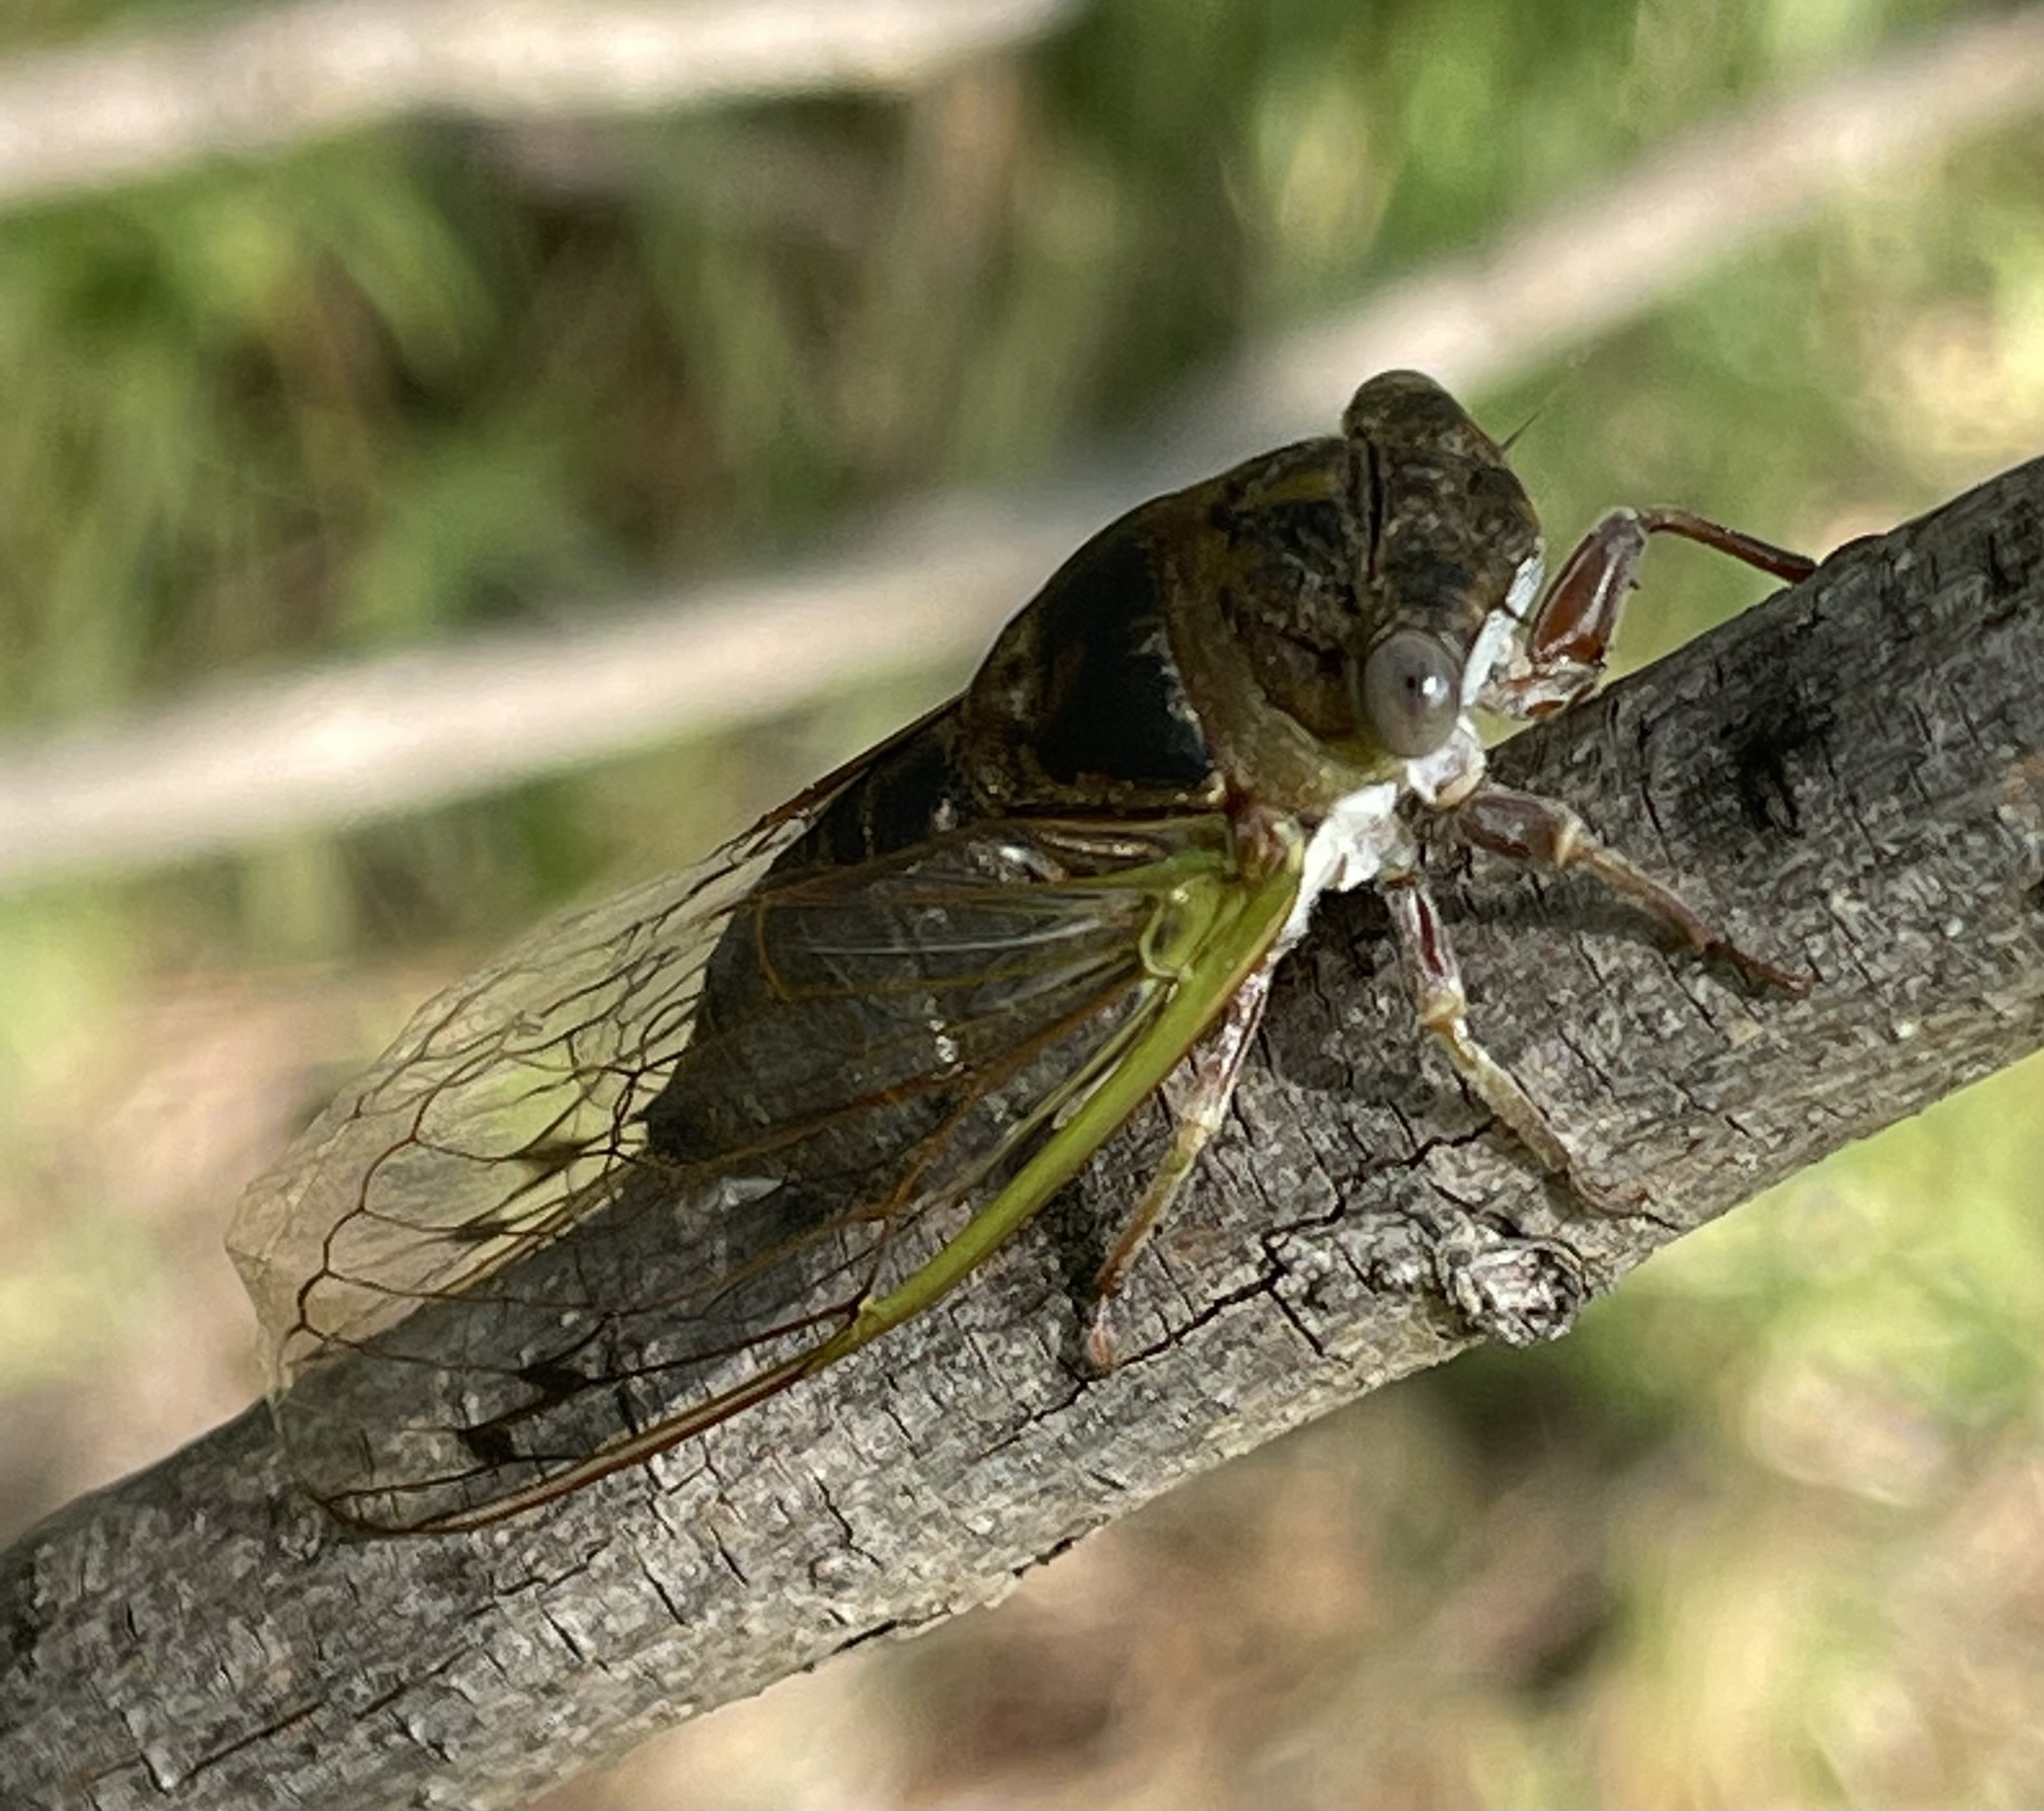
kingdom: Animalia
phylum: Arthropoda
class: Insecta
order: Hemiptera
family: Cicadidae
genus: Neotibicen
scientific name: Neotibicen aurifer
